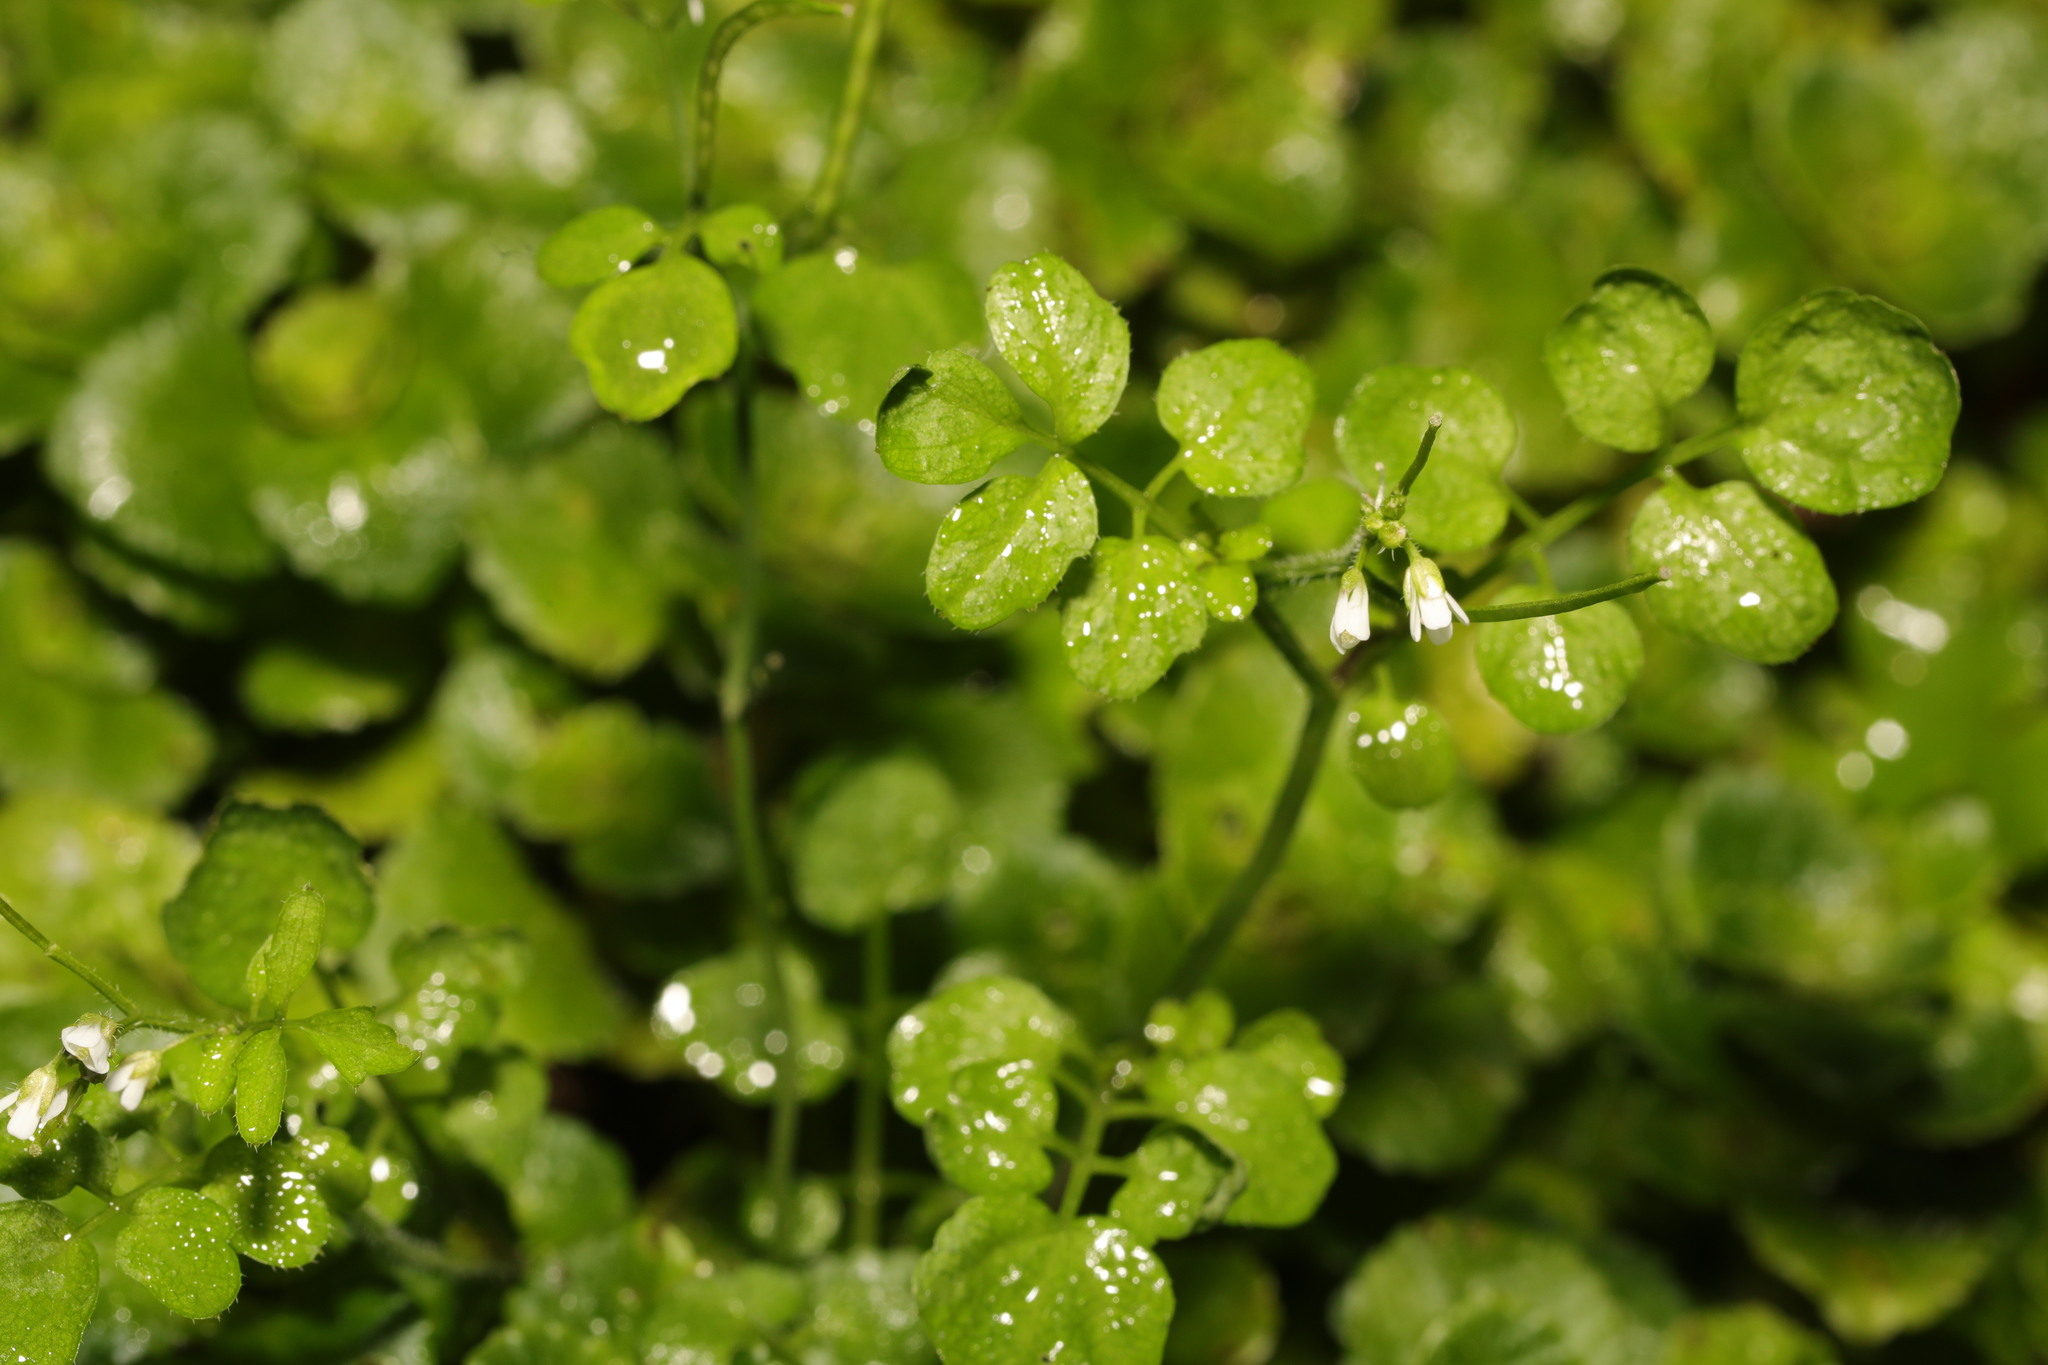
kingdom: Plantae
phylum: Tracheophyta
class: Magnoliopsida
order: Brassicales
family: Brassicaceae
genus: Cardamine
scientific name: Cardamine flexuosa
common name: Woodland bittercress
